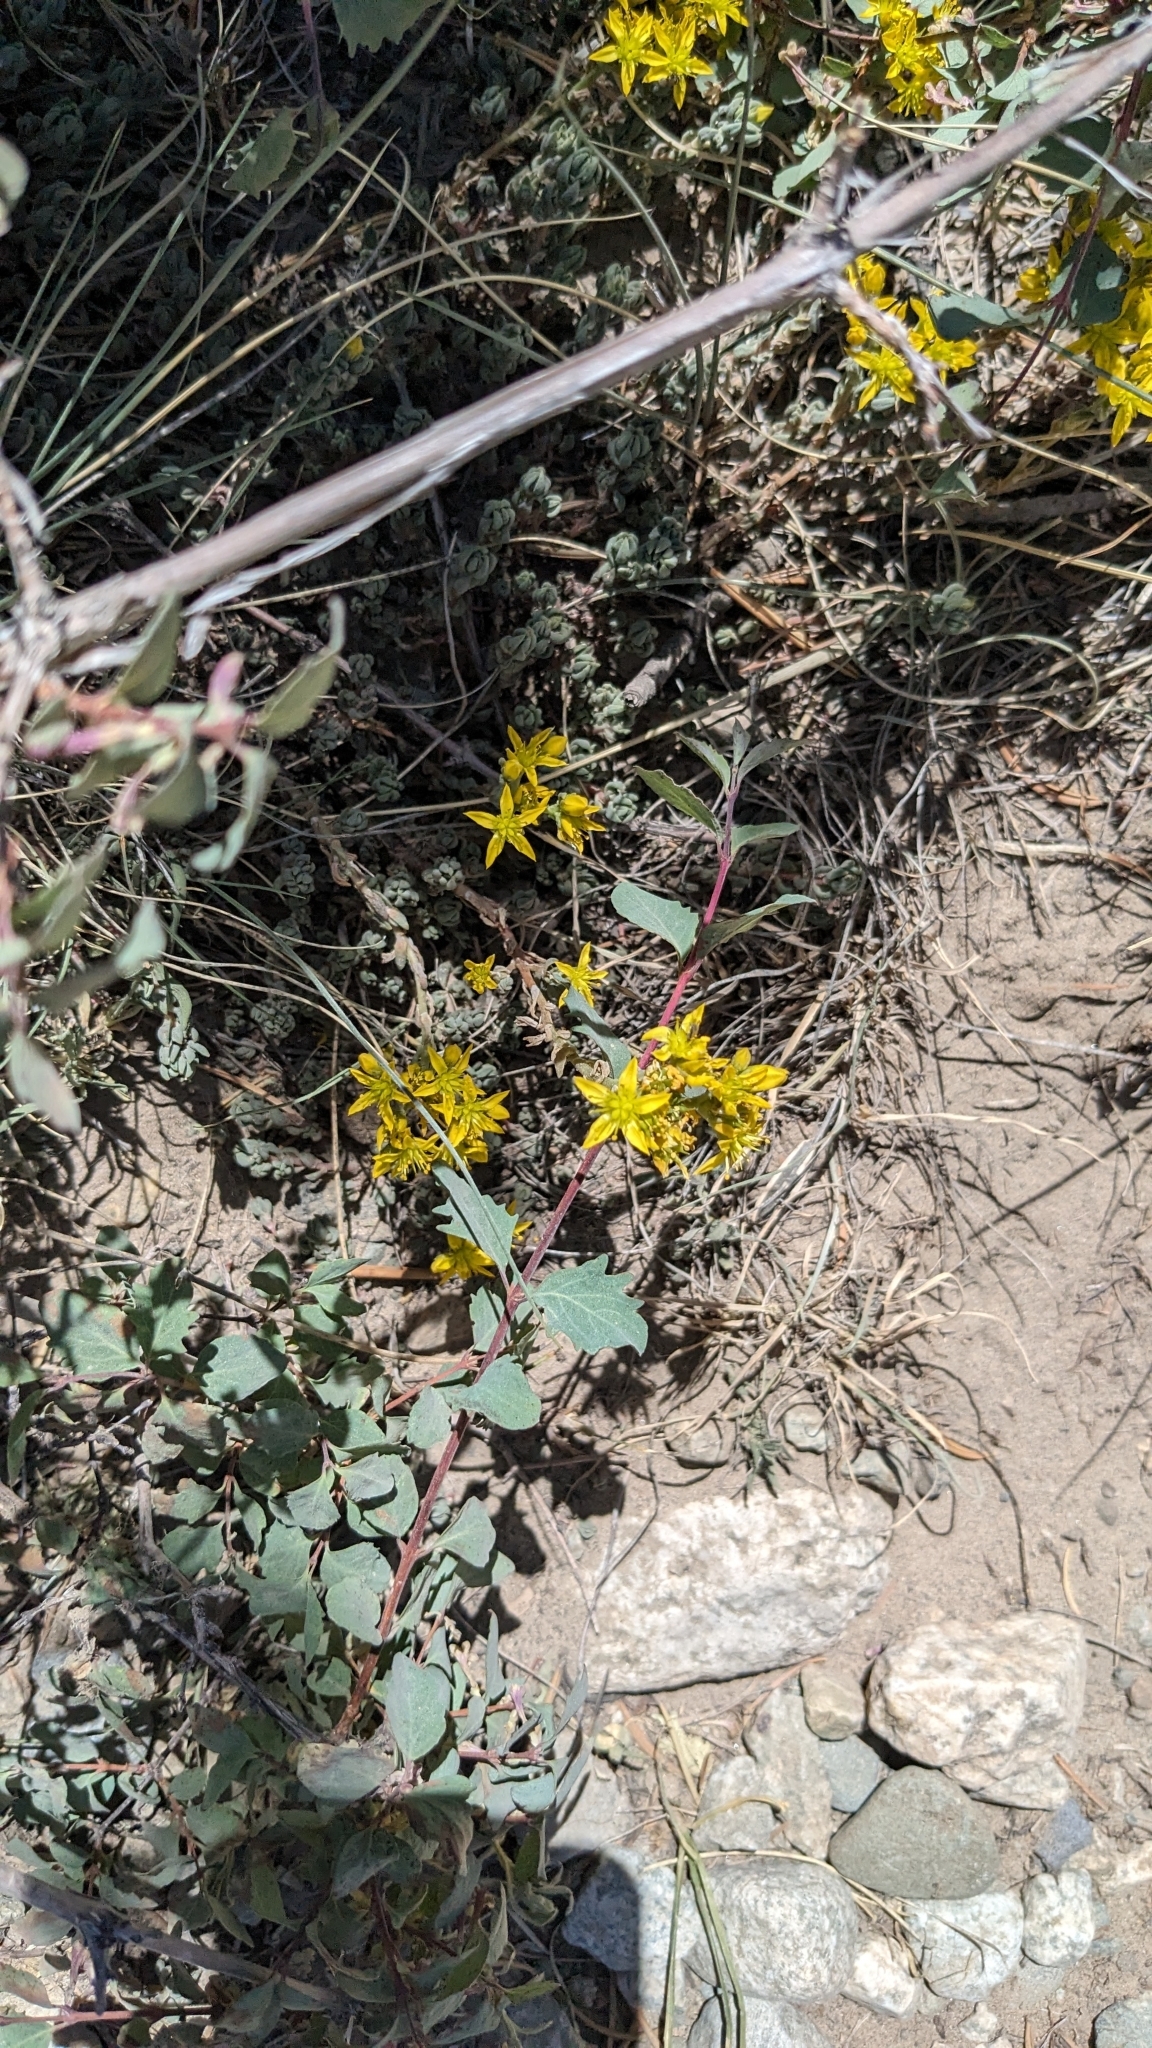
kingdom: Plantae
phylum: Tracheophyta
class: Magnoliopsida
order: Saxifragales
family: Crassulaceae
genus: Sedum
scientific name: Sedum lanceolatum
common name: Common stonecrop
